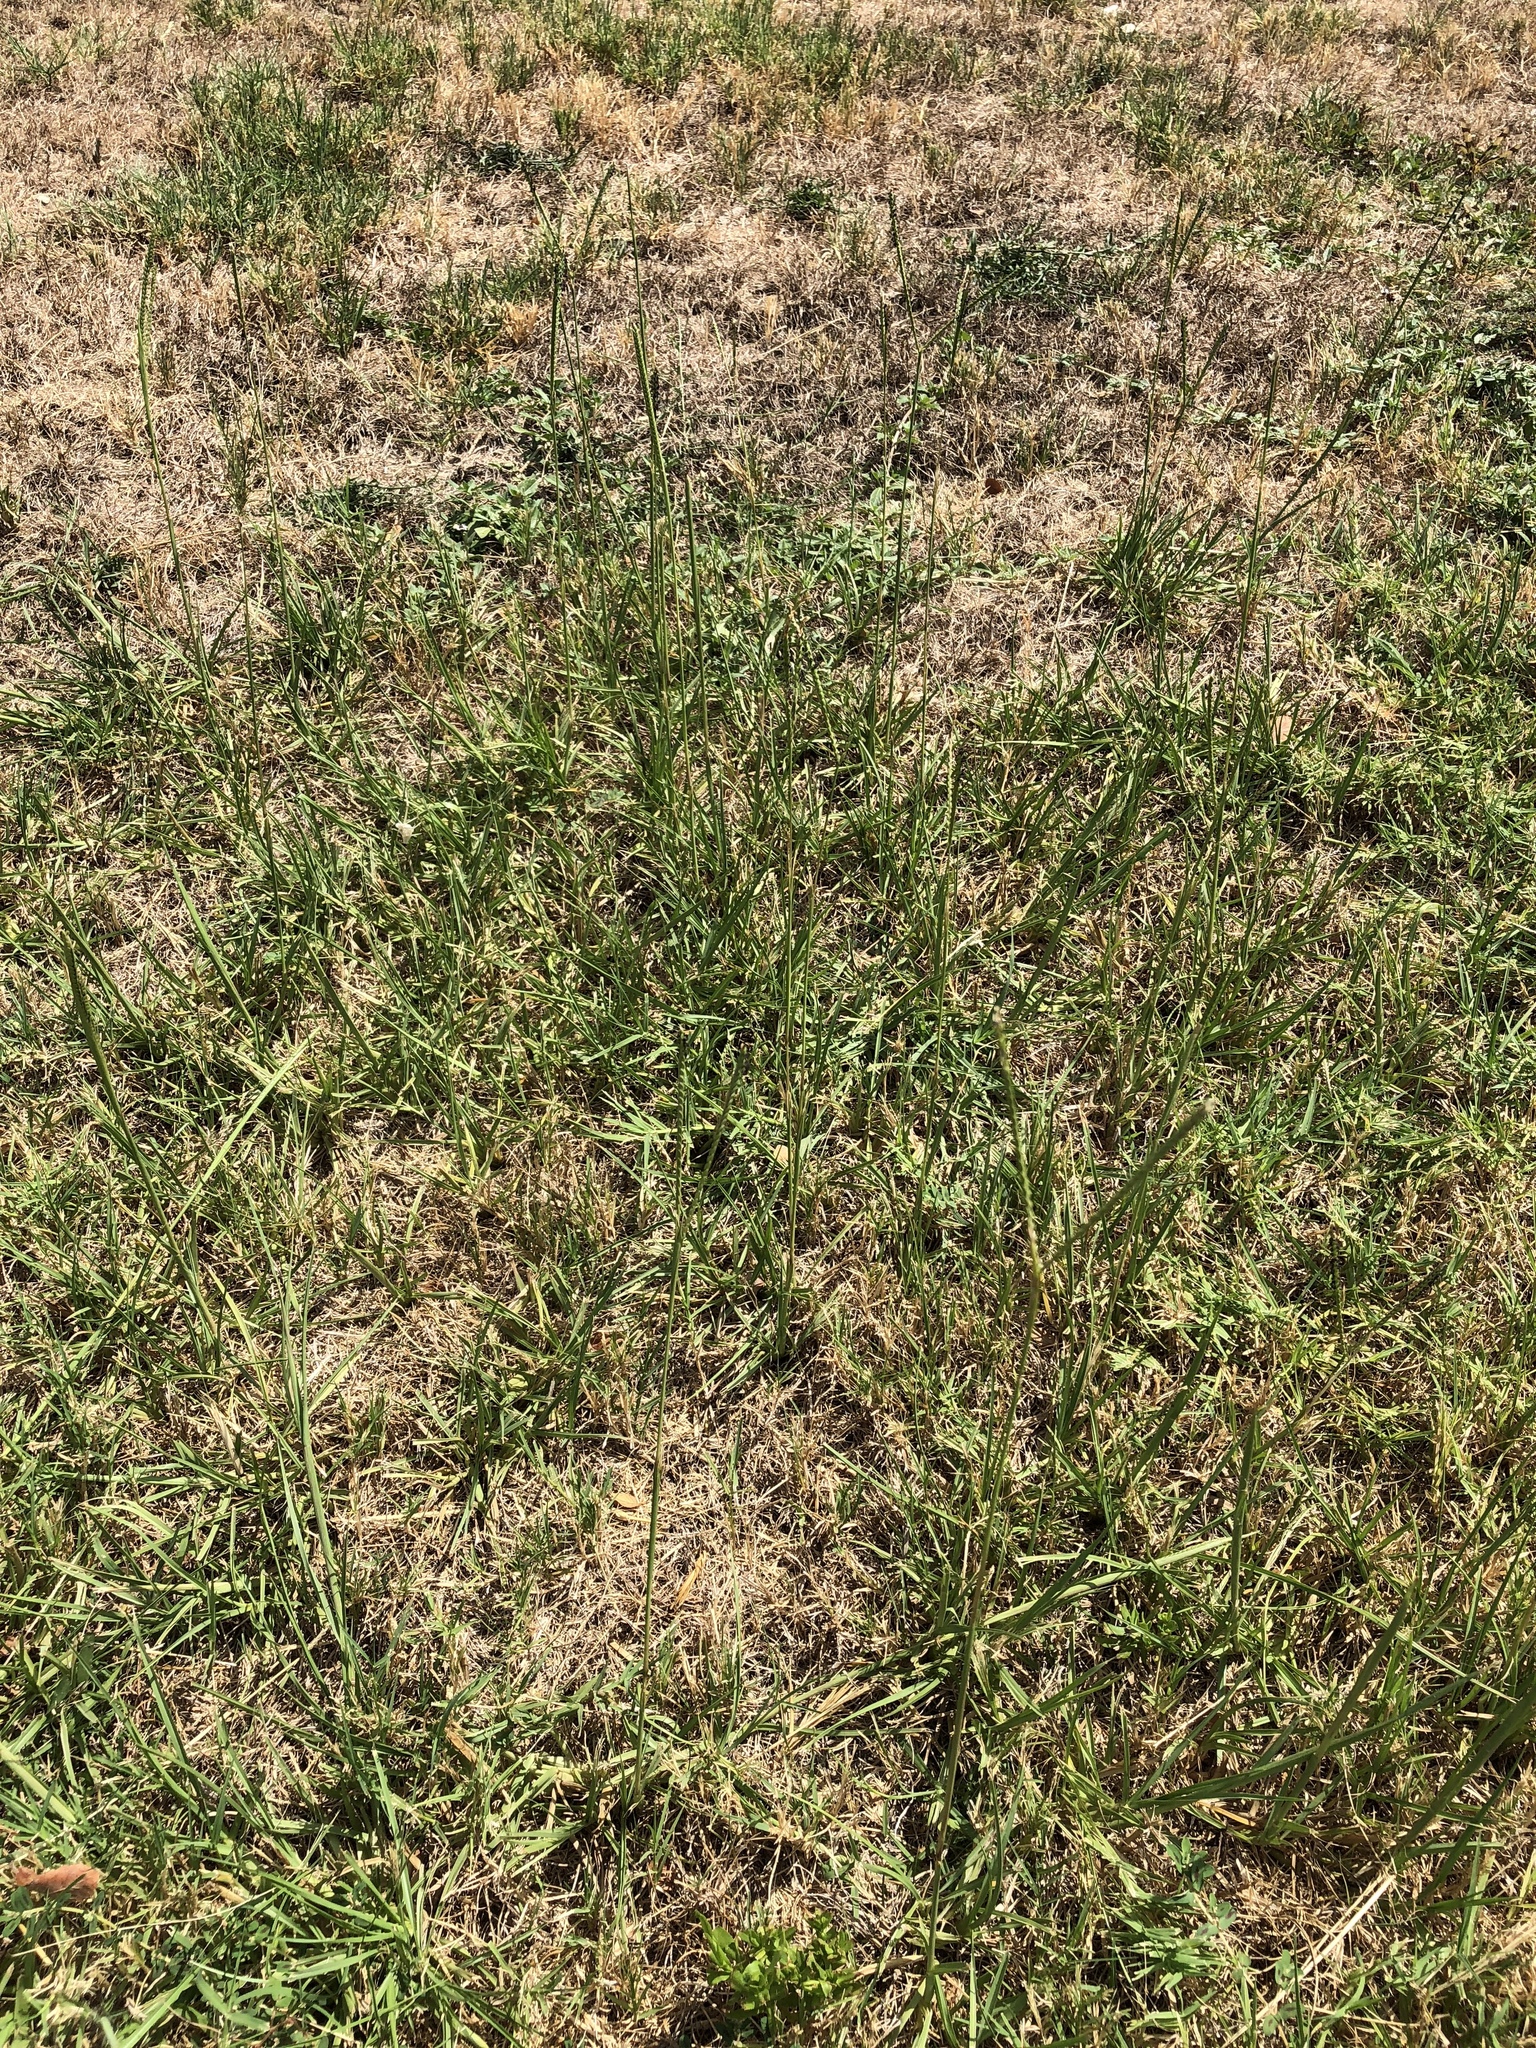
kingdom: Plantae
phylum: Tracheophyta
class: Liliopsida
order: Poales
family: Poaceae
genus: Paspalum
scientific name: Paspalum notatum
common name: Bahiagrass
